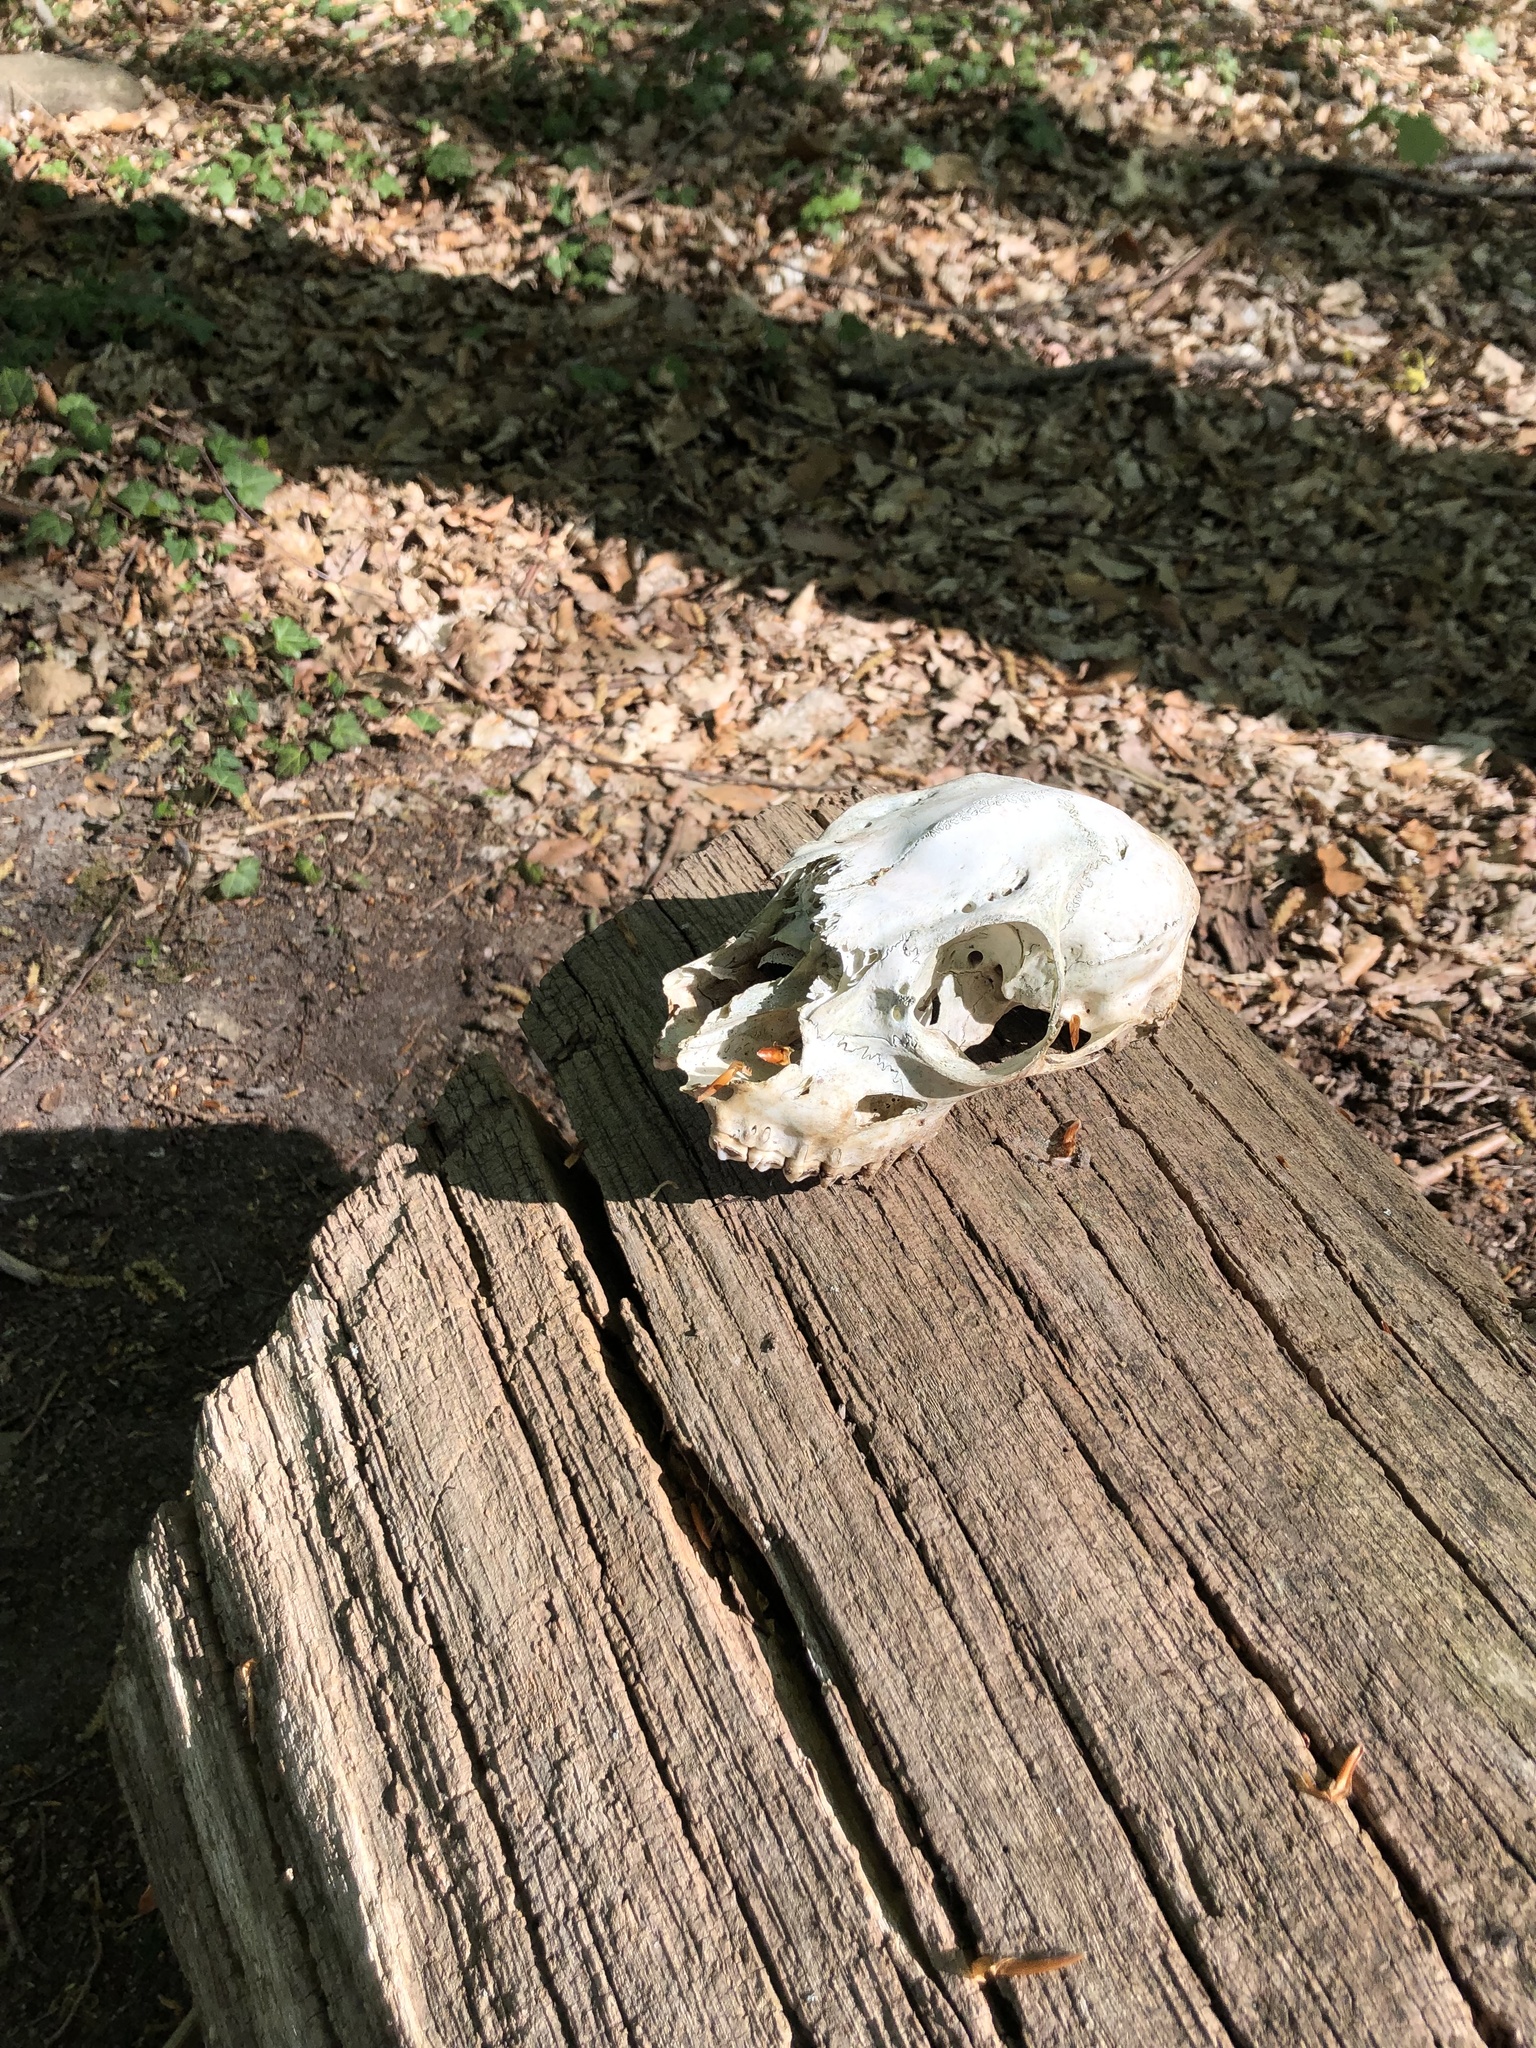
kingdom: Animalia
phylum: Chordata
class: Mammalia
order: Artiodactyla
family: Cervidae
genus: Capreolus
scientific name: Capreolus capreolus
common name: Western roe deer
